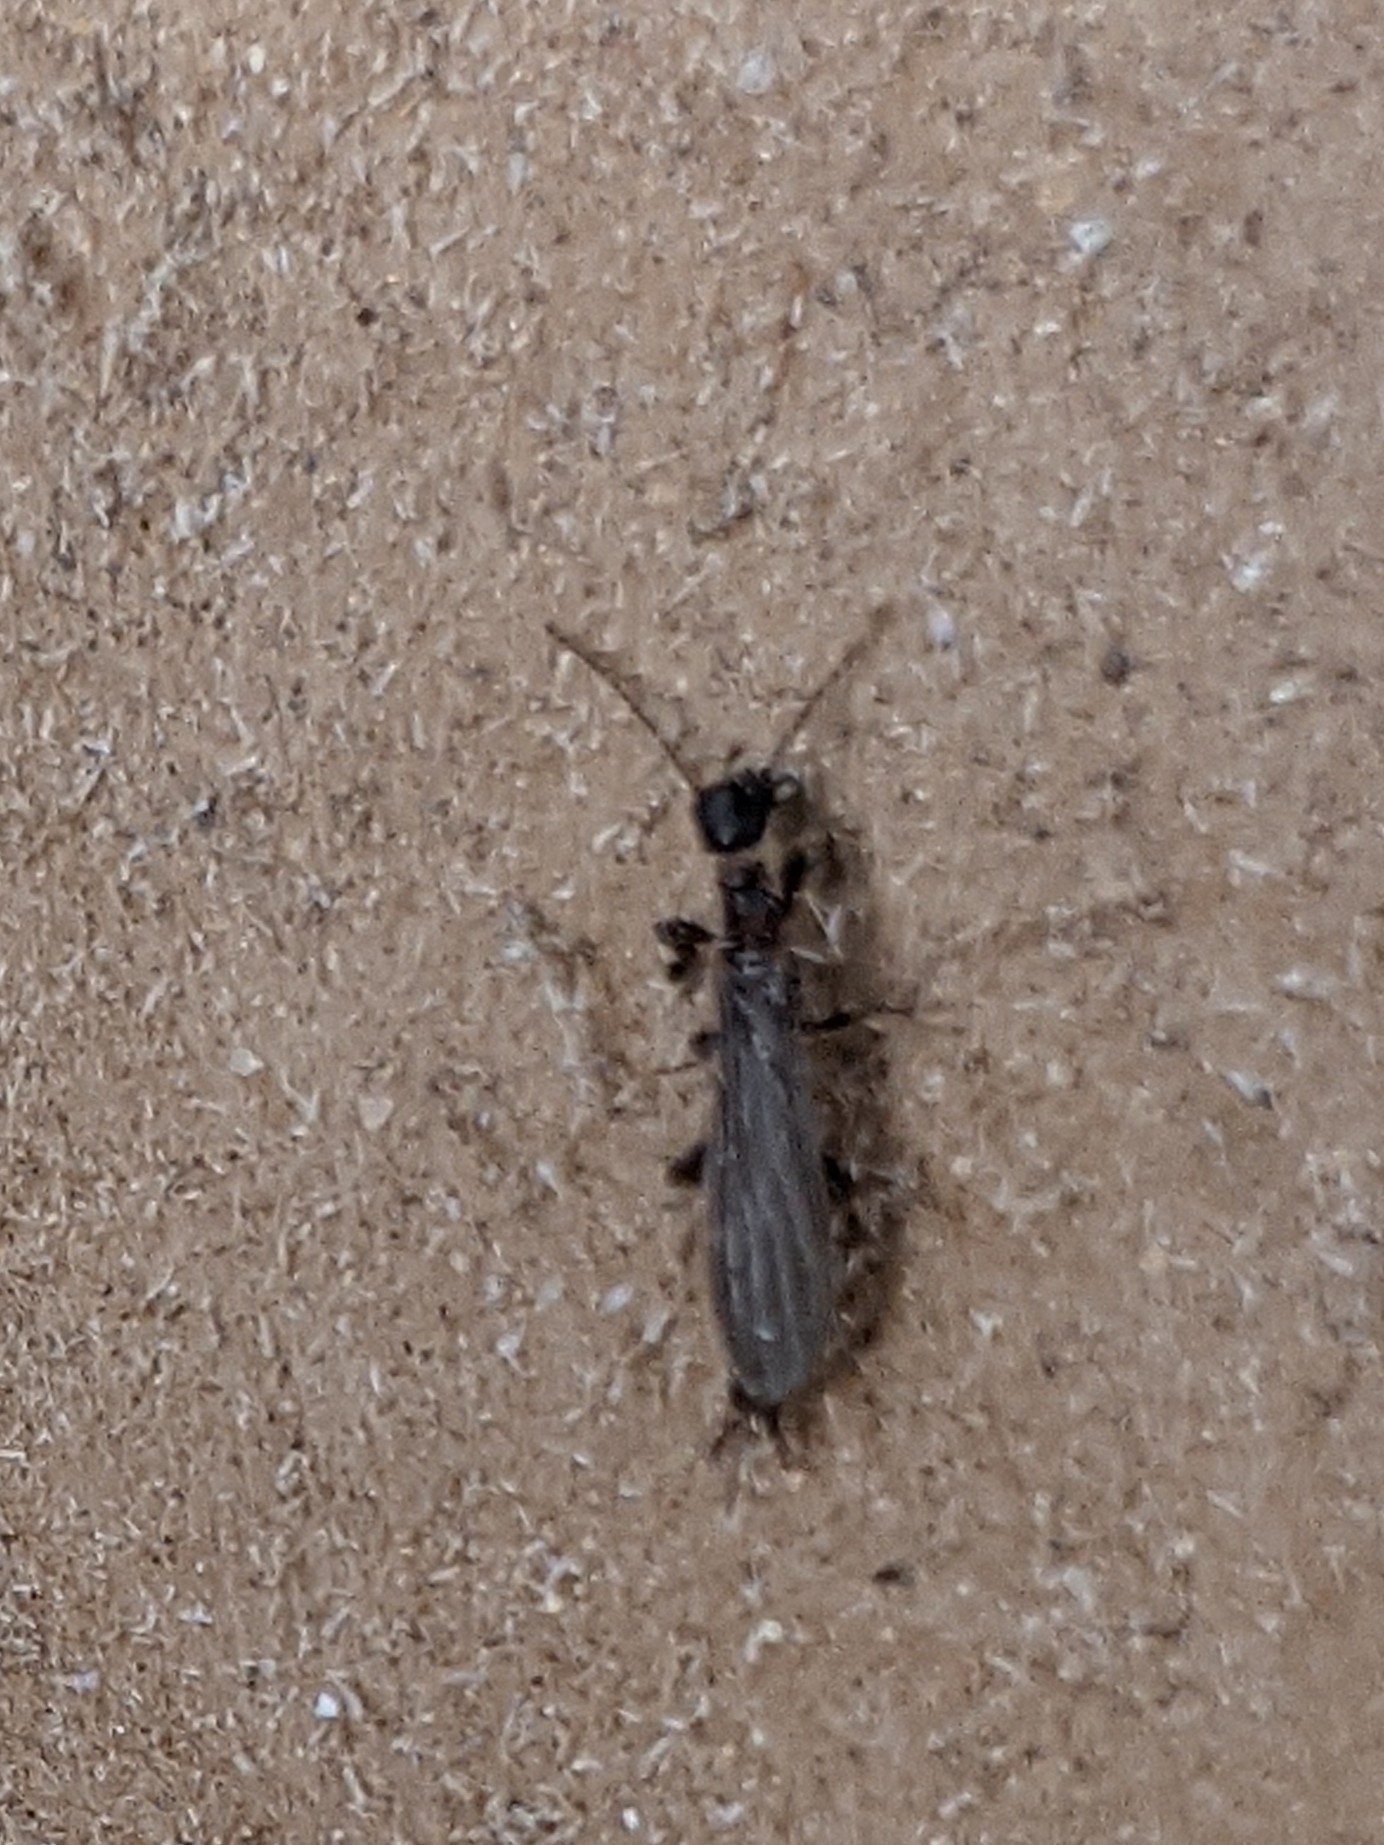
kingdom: Animalia
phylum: Arthropoda
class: Insecta
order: Embioptera
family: Oligotomidae
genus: Oligotoma
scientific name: Oligotoma nigra
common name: Black webspinner
